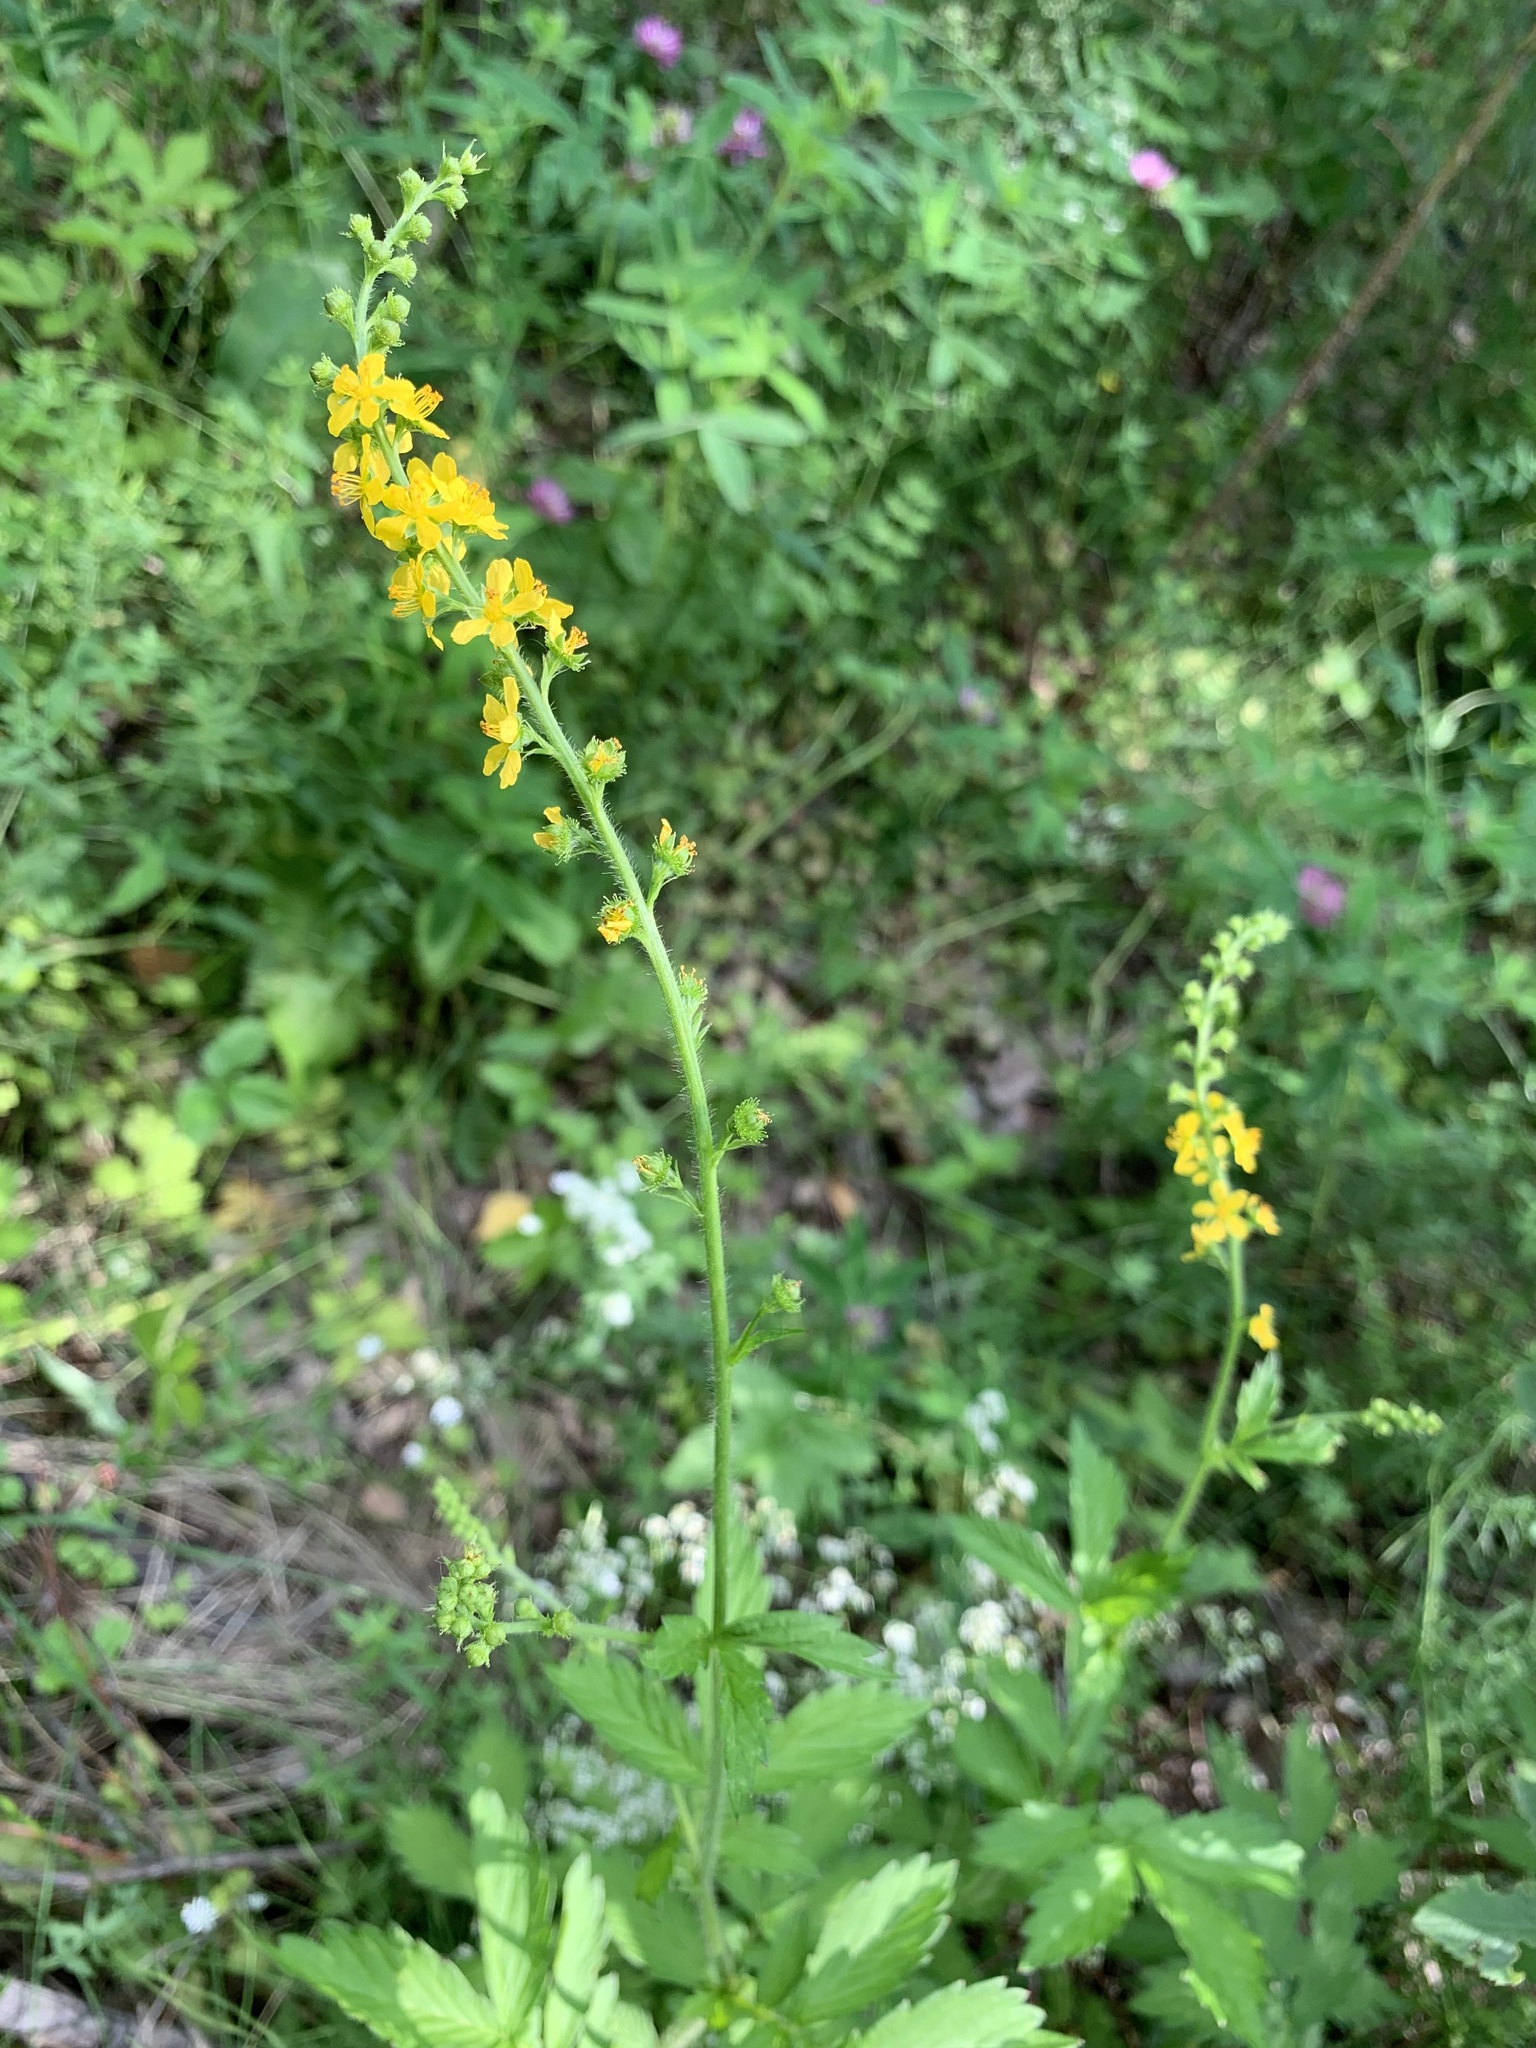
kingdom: Plantae
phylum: Tracheophyta
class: Magnoliopsida
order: Rosales
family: Rosaceae
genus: Agrimonia
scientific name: Agrimonia pilosa
